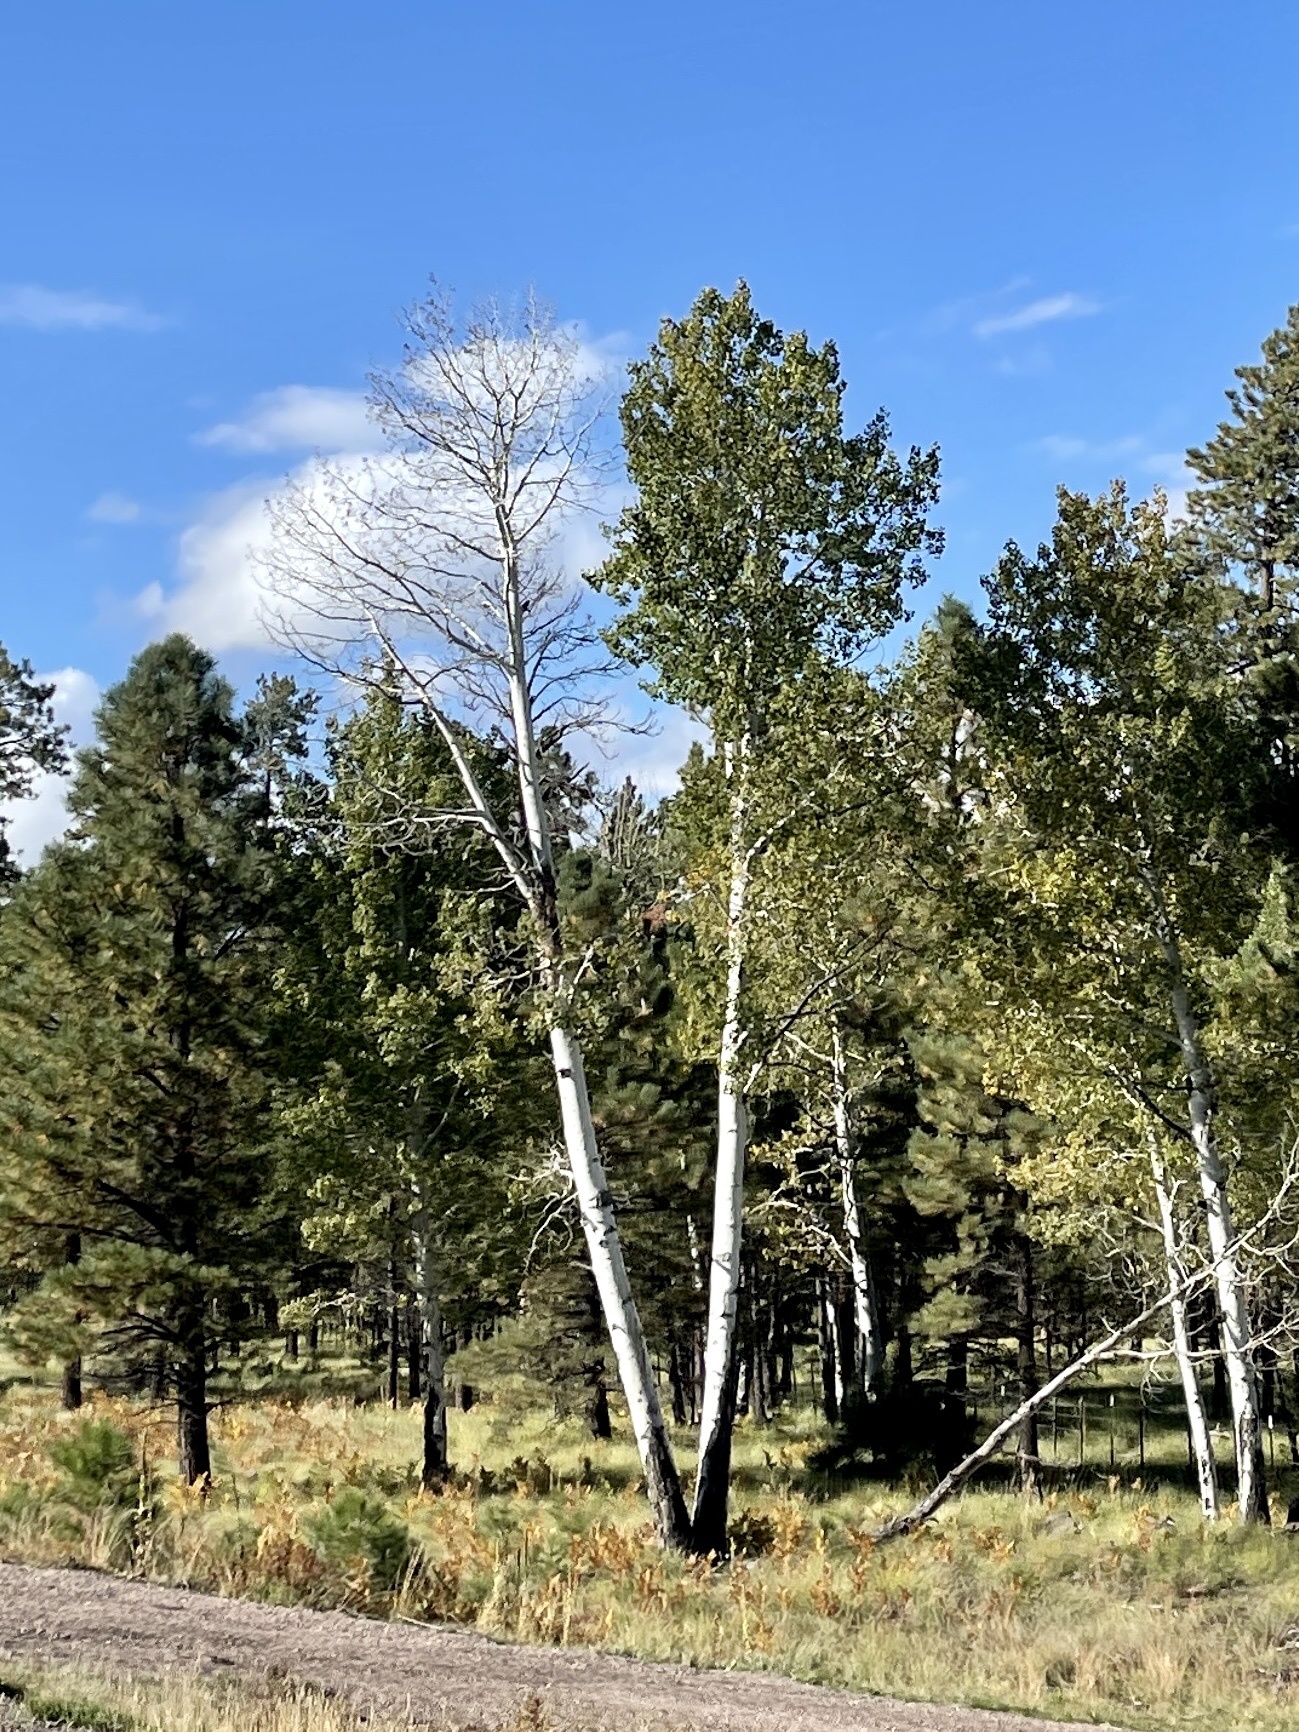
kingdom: Plantae
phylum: Tracheophyta
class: Magnoliopsida
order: Malpighiales
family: Salicaceae
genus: Populus
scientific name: Populus tremuloides
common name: Quaking aspen
